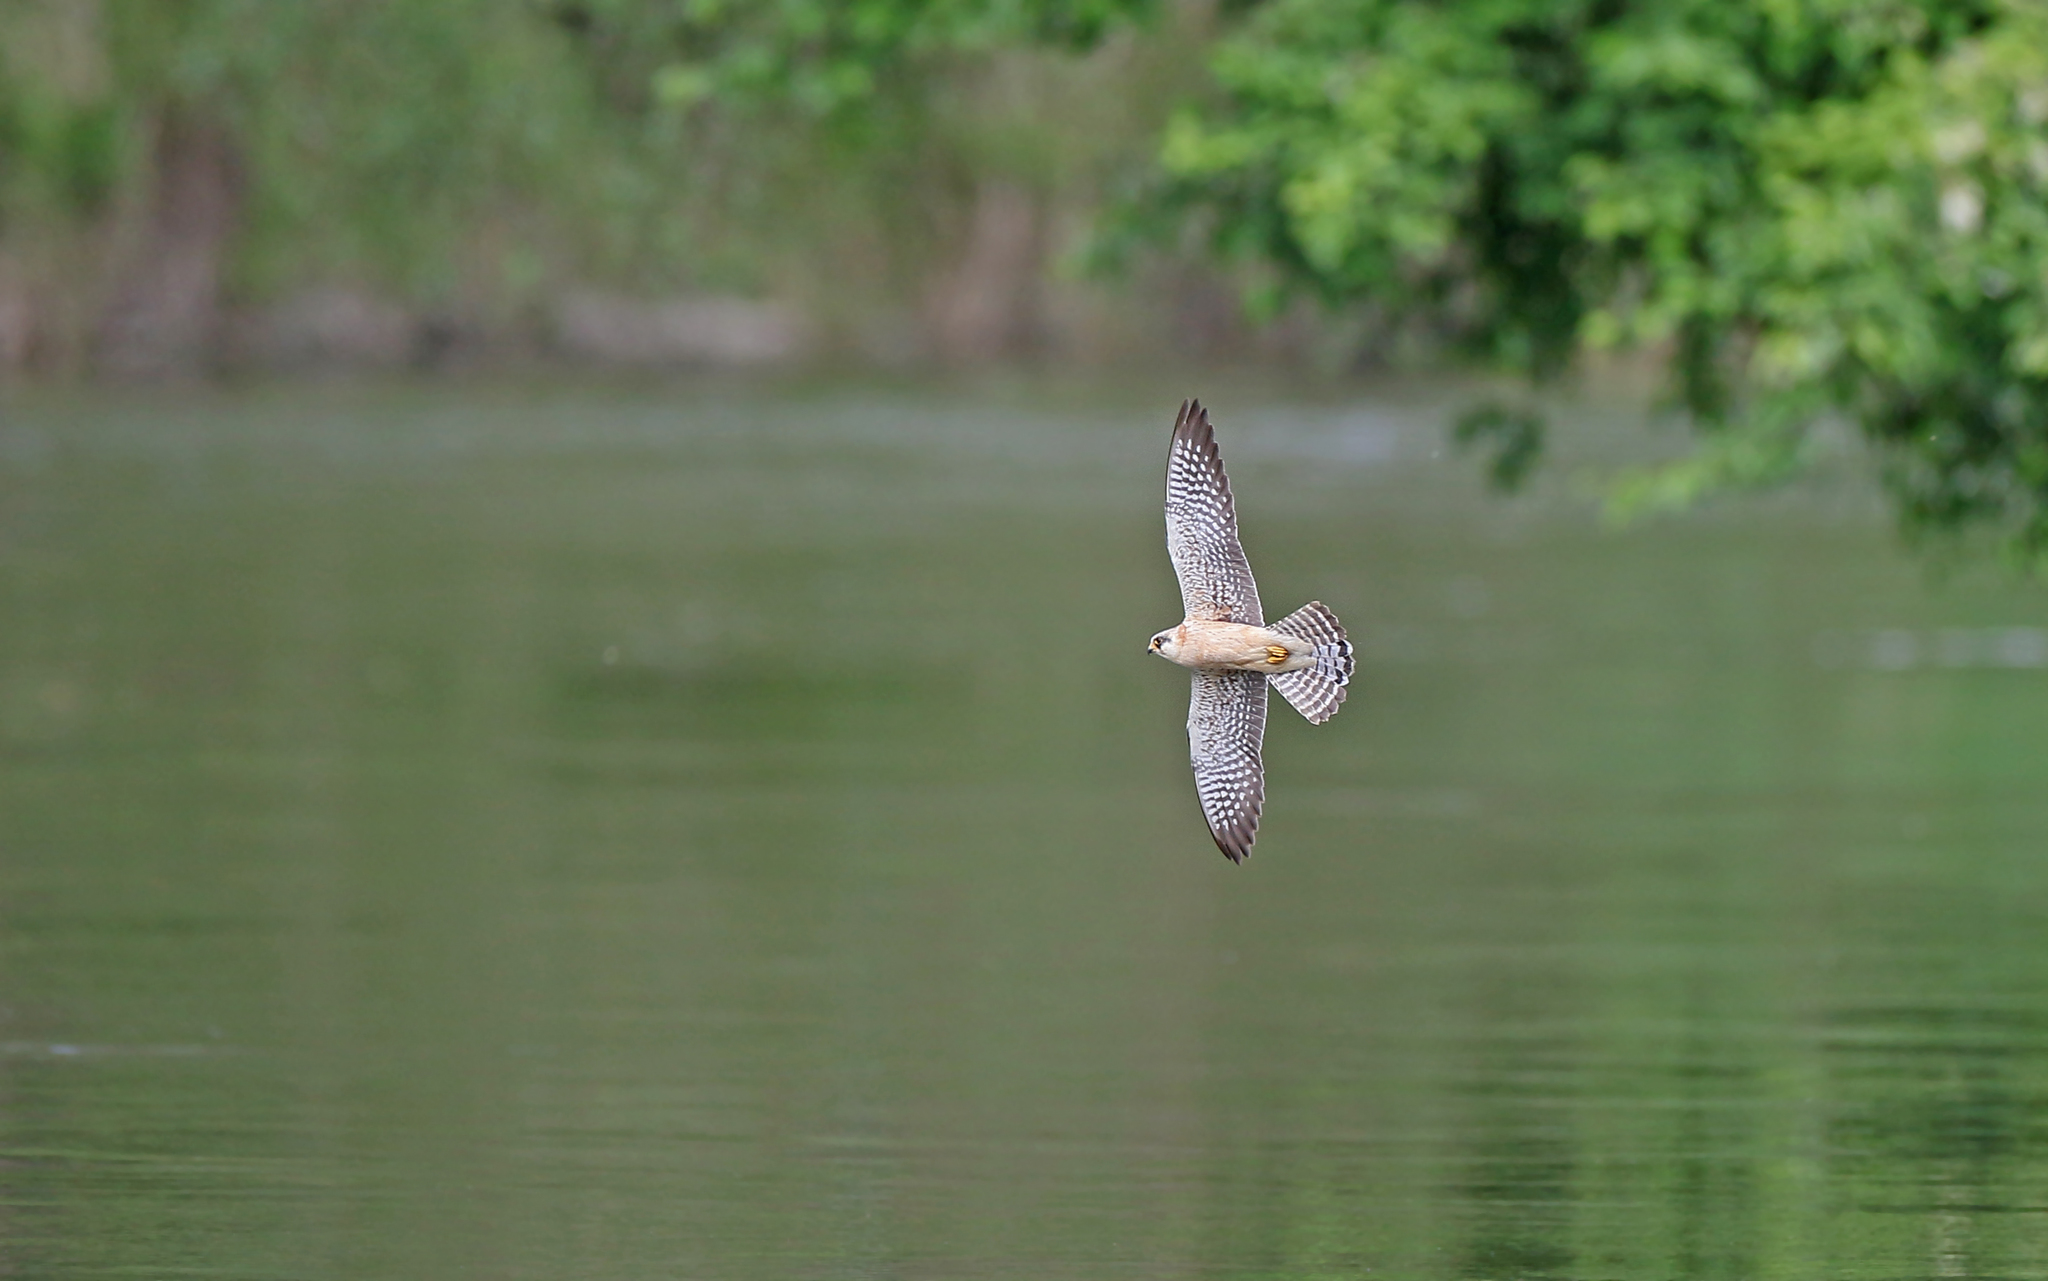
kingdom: Animalia
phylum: Chordata
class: Aves
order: Falconiformes
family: Falconidae
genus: Falco
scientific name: Falco vespertinus
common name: Red-footed falcon
